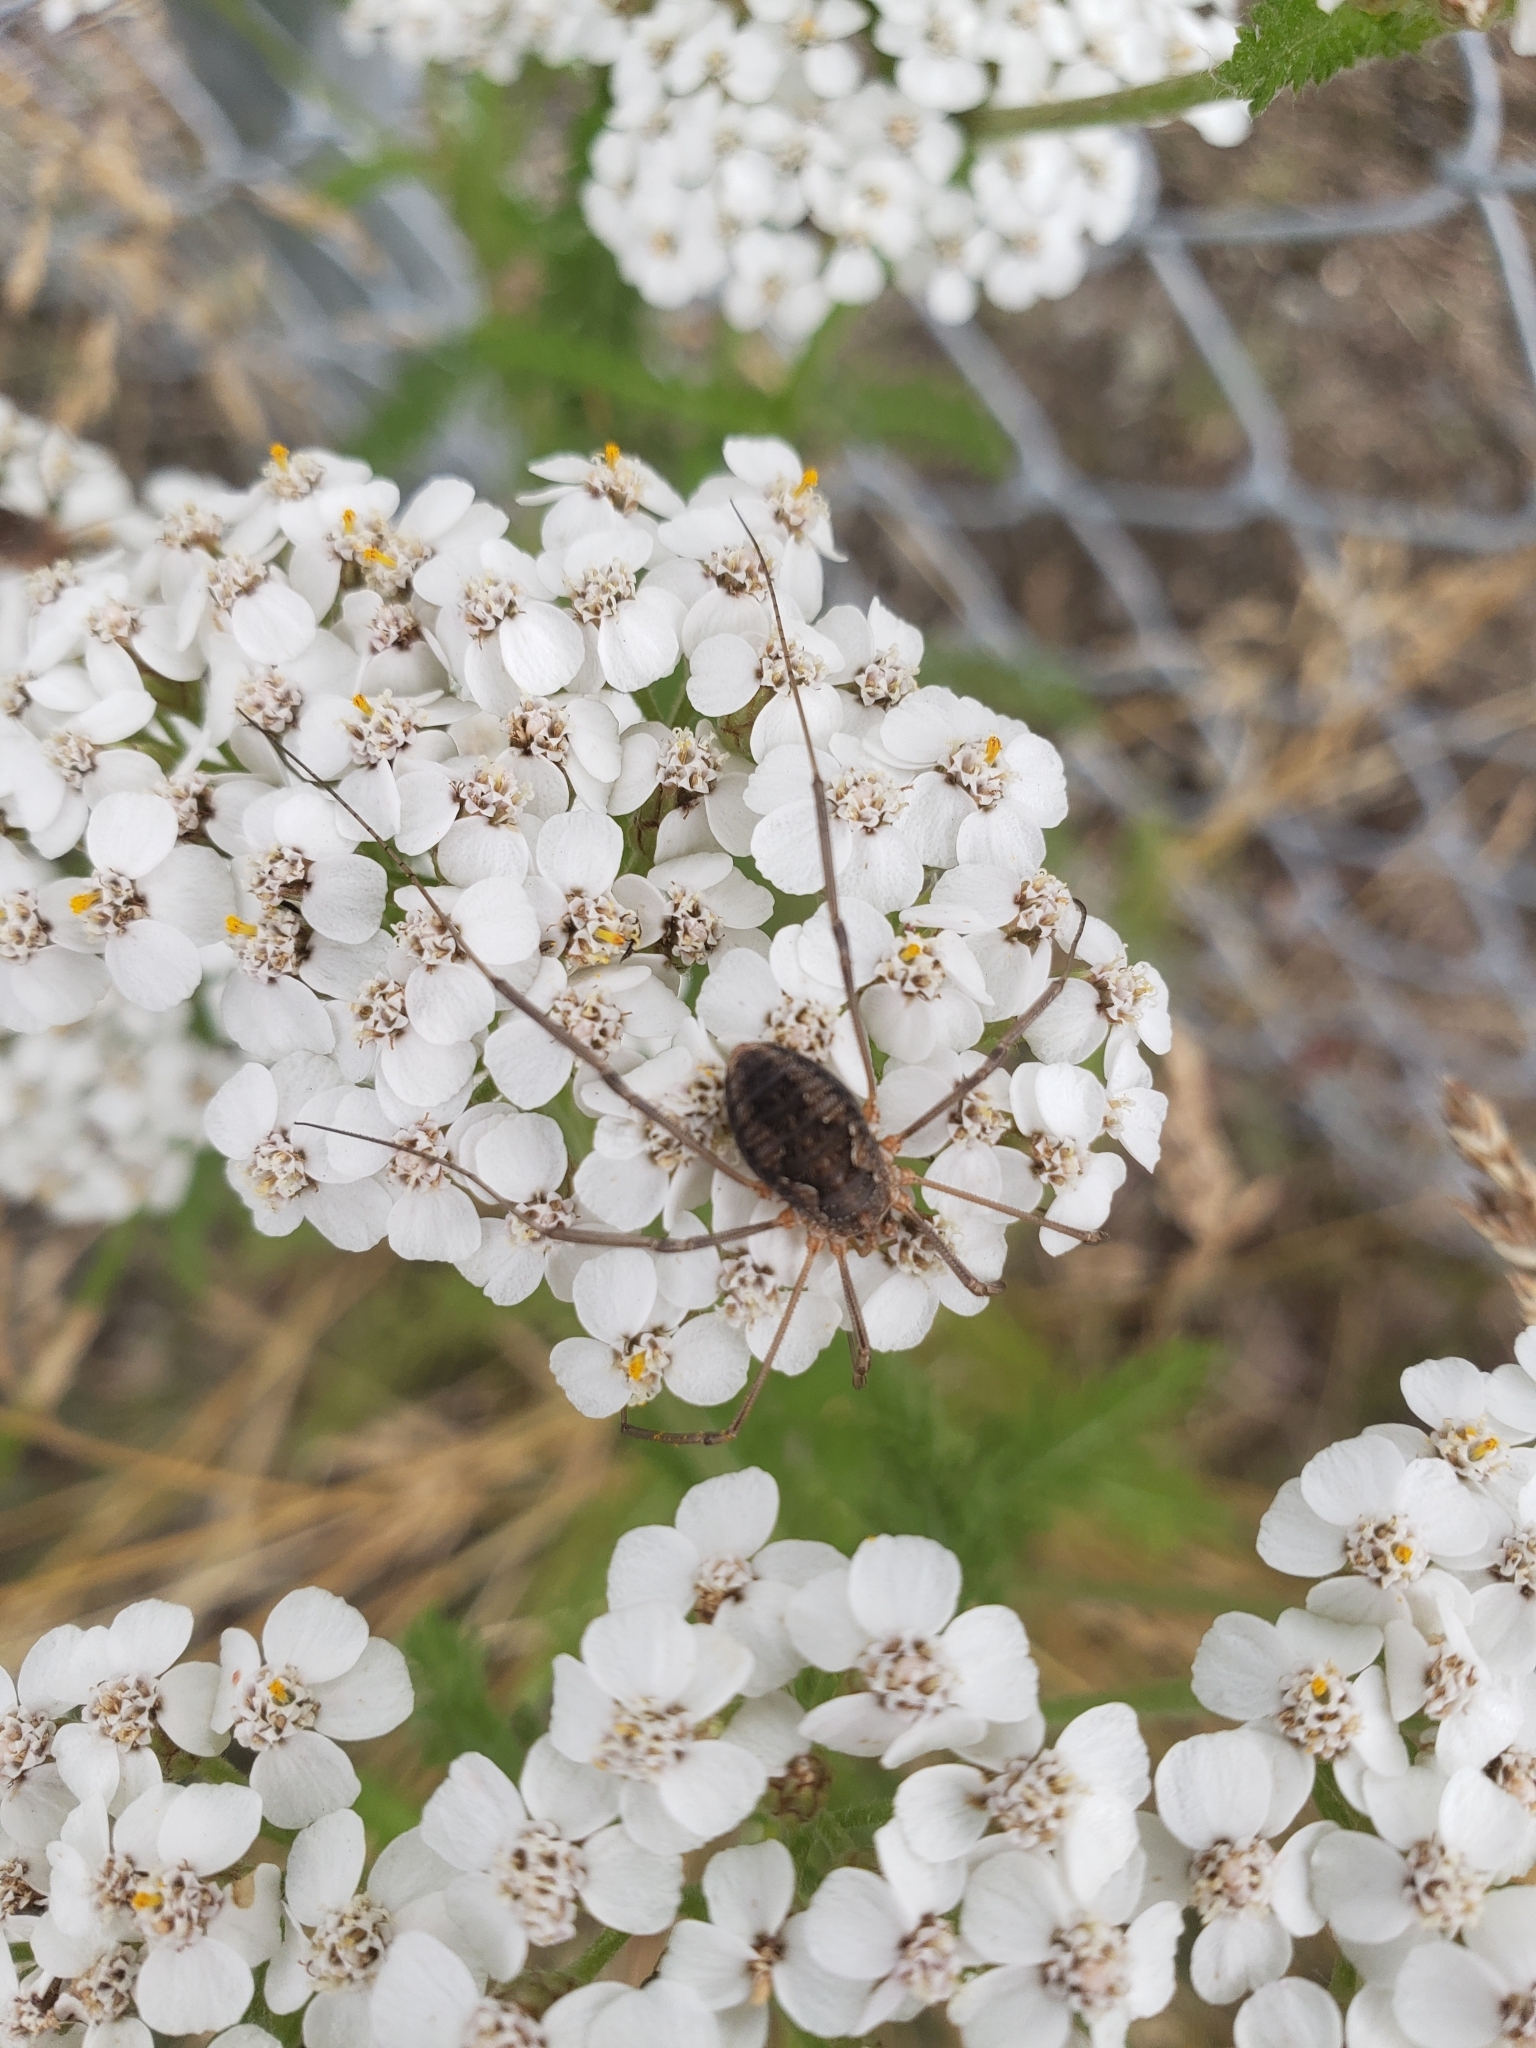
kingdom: Animalia
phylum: Arthropoda
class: Arachnida
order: Opiliones
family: Phalangiidae
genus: Phalangium
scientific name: Phalangium opilio
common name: Daddy longleg
